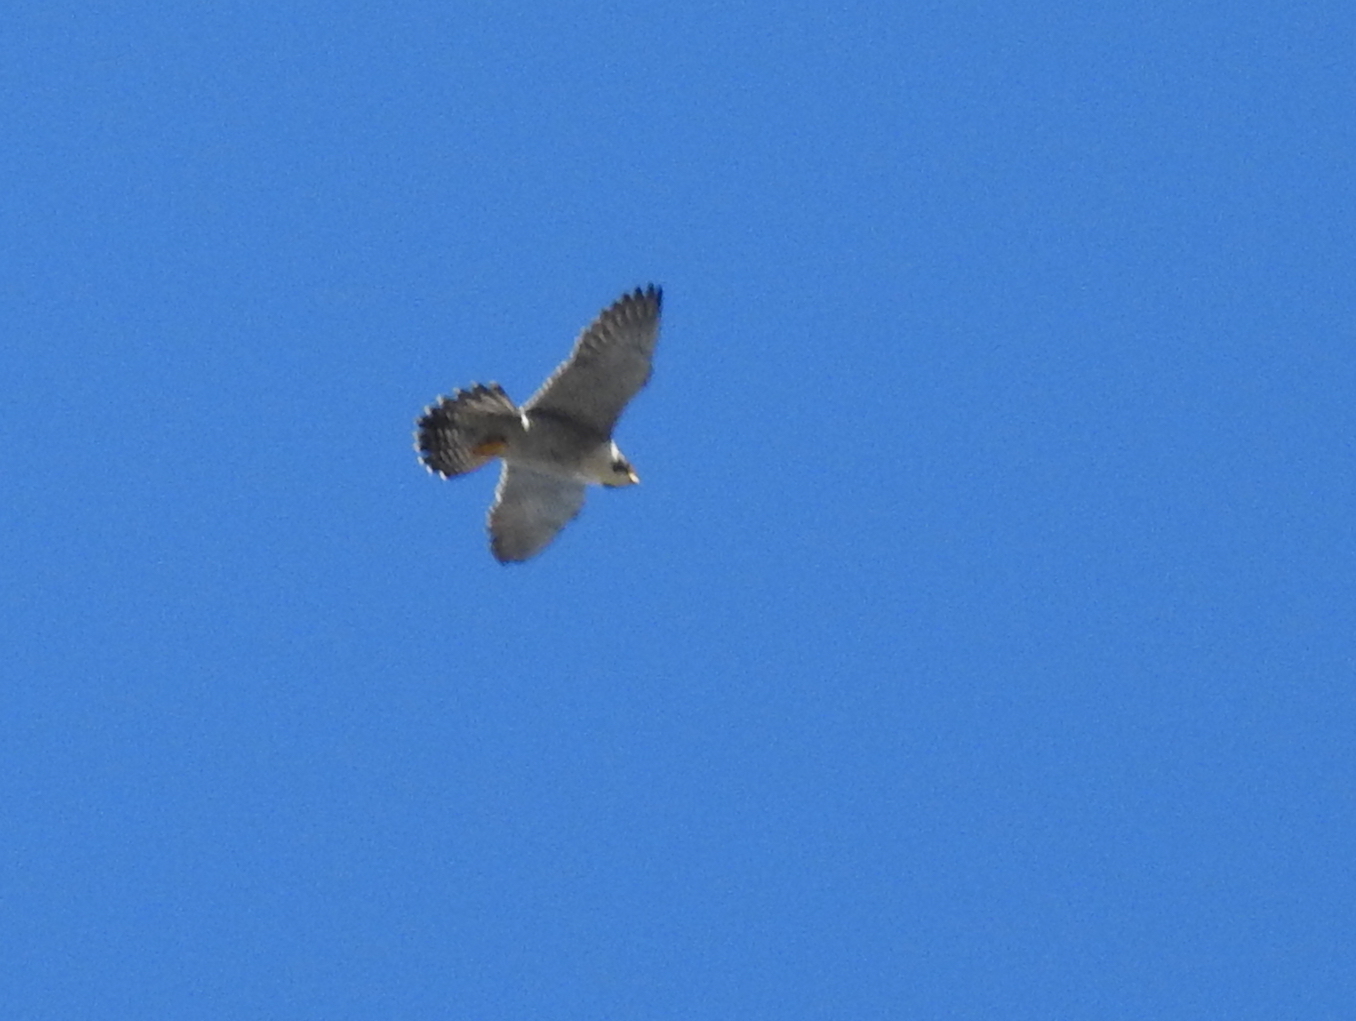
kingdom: Animalia
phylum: Chordata
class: Aves
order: Falconiformes
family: Falconidae
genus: Falco
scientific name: Falco peregrinus
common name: Peregrine falcon
